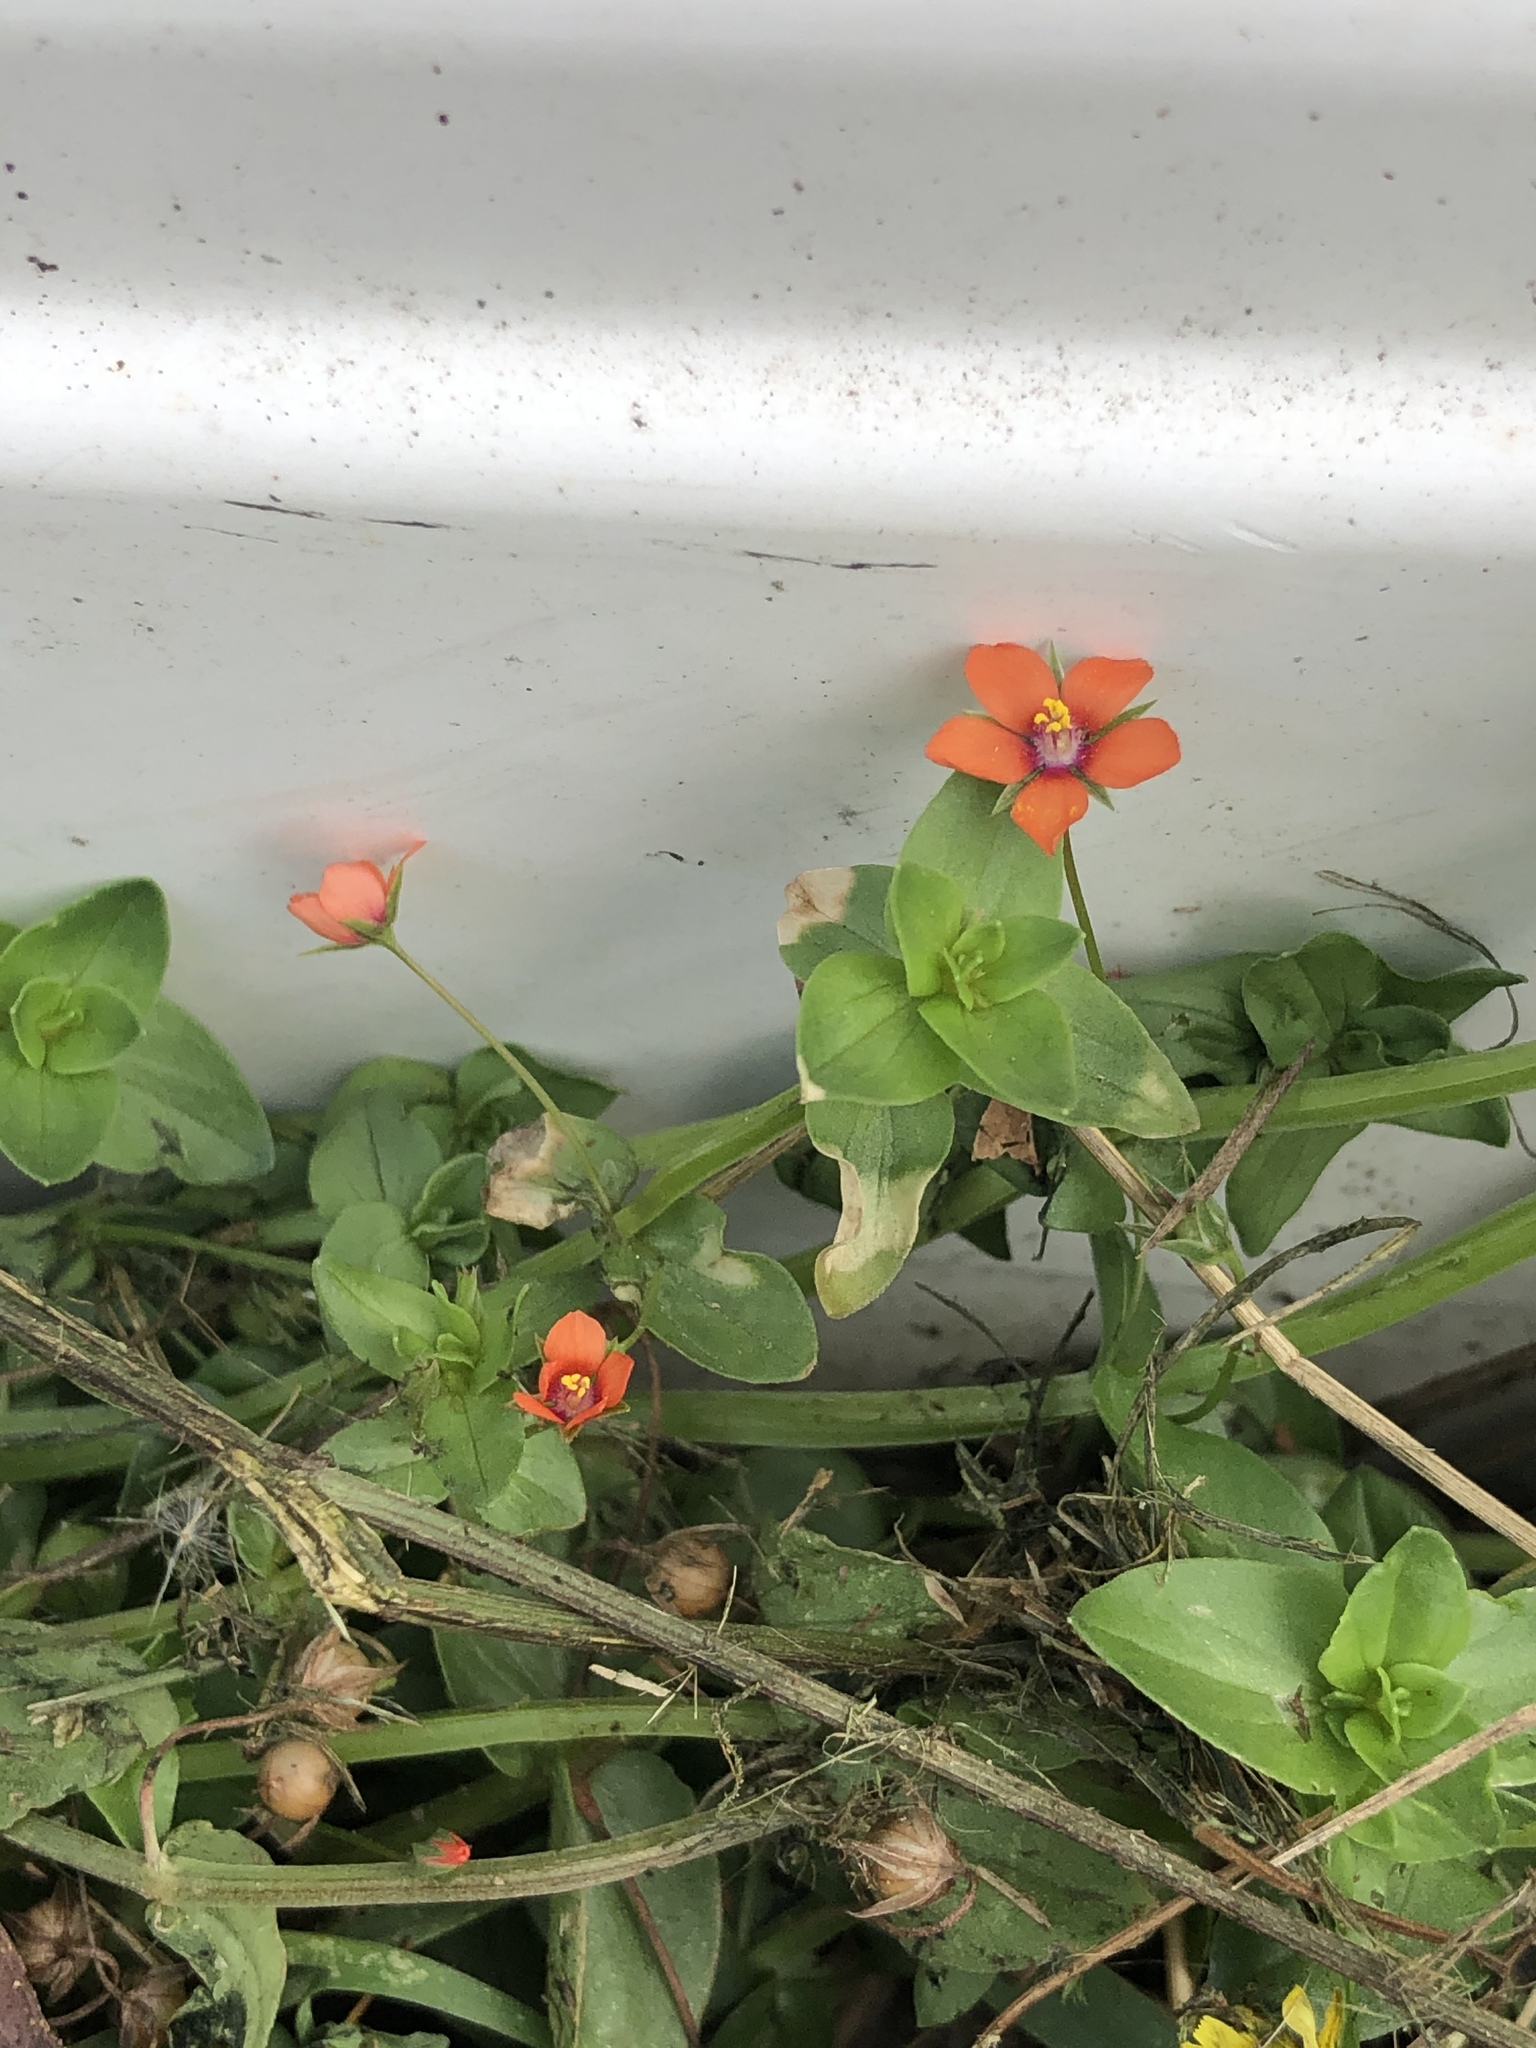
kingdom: Plantae
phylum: Tracheophyta
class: Magnoliopsida
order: Ericales
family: Primulaceae
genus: Lysimachia
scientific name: Lysimachia arvensis
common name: Scarlet pimpernel
